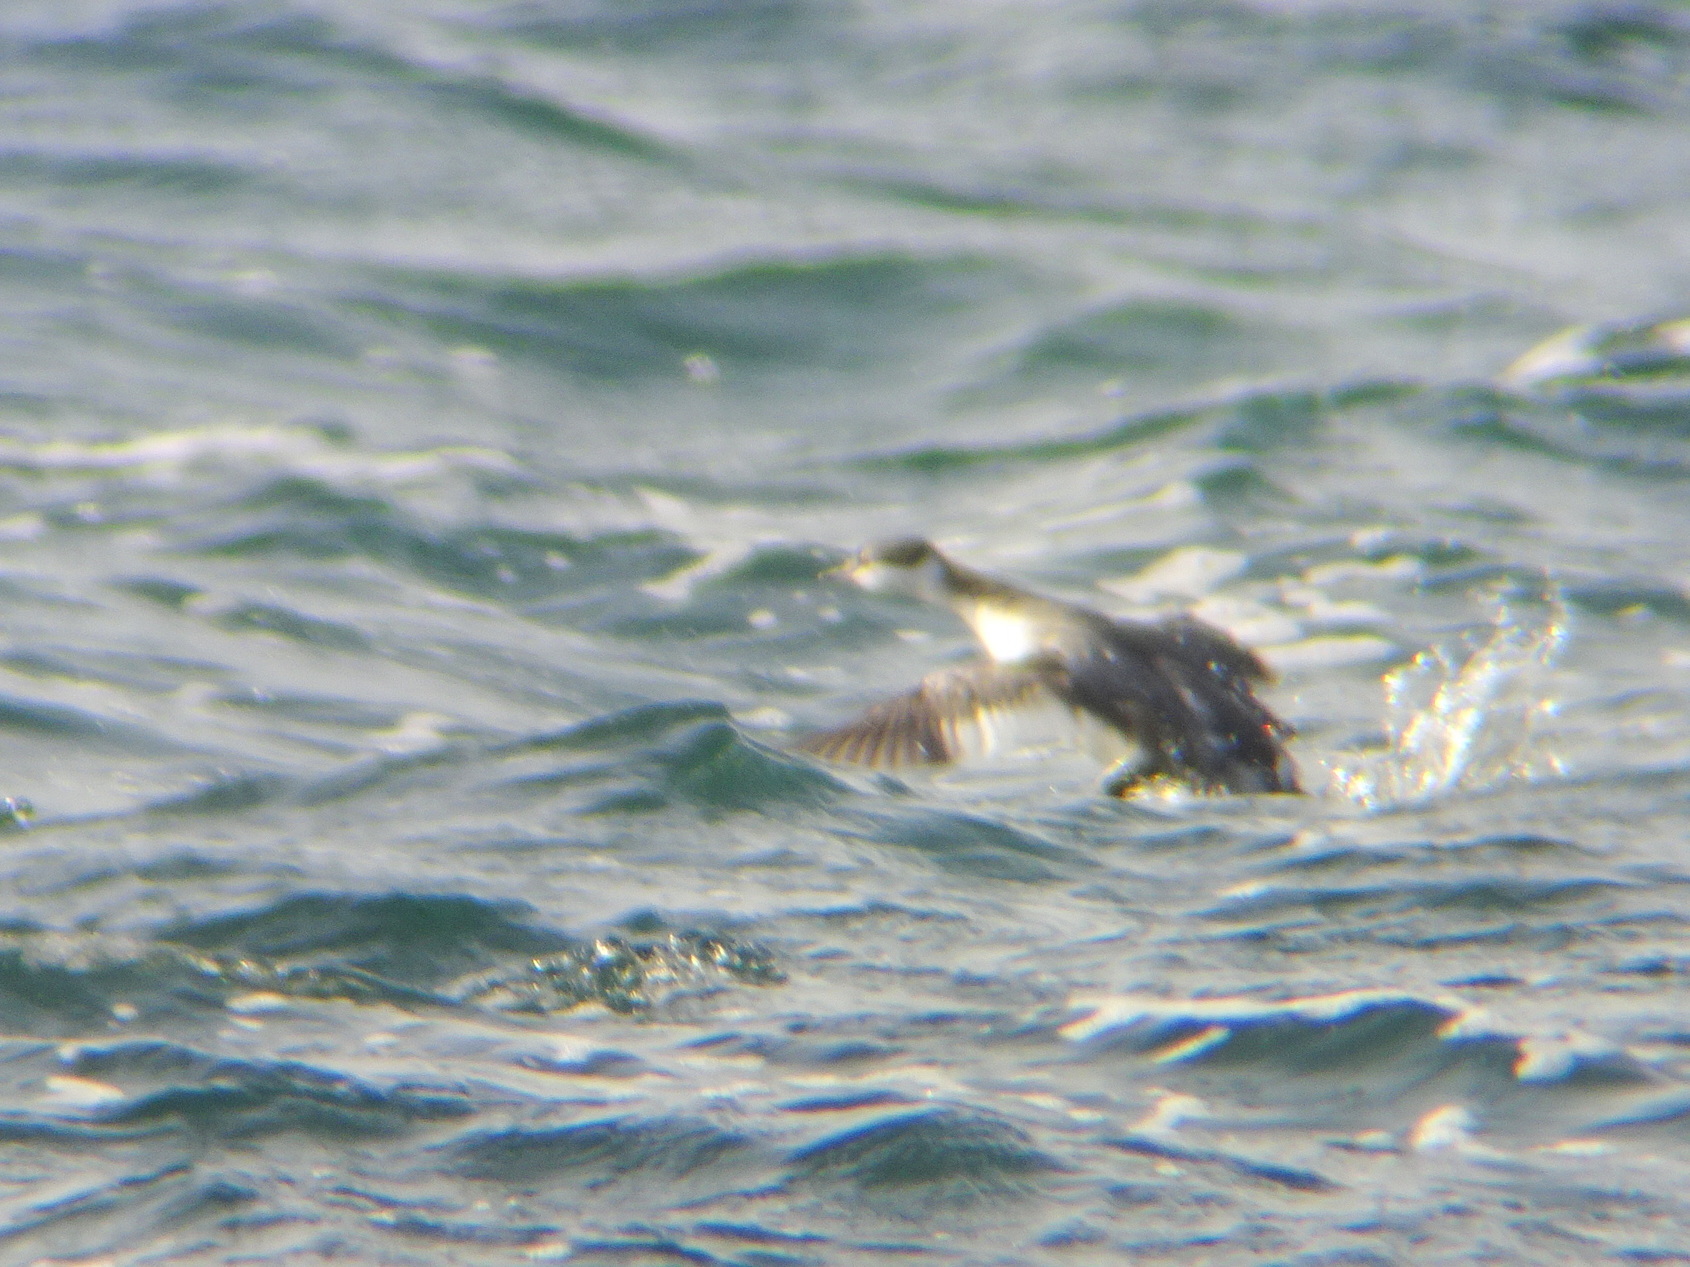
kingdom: Animalia
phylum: Chordata
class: Aves
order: Podicipediformes
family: Podicipedidae
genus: Podiceps
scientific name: Podiceps auritus
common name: Horned grebe
